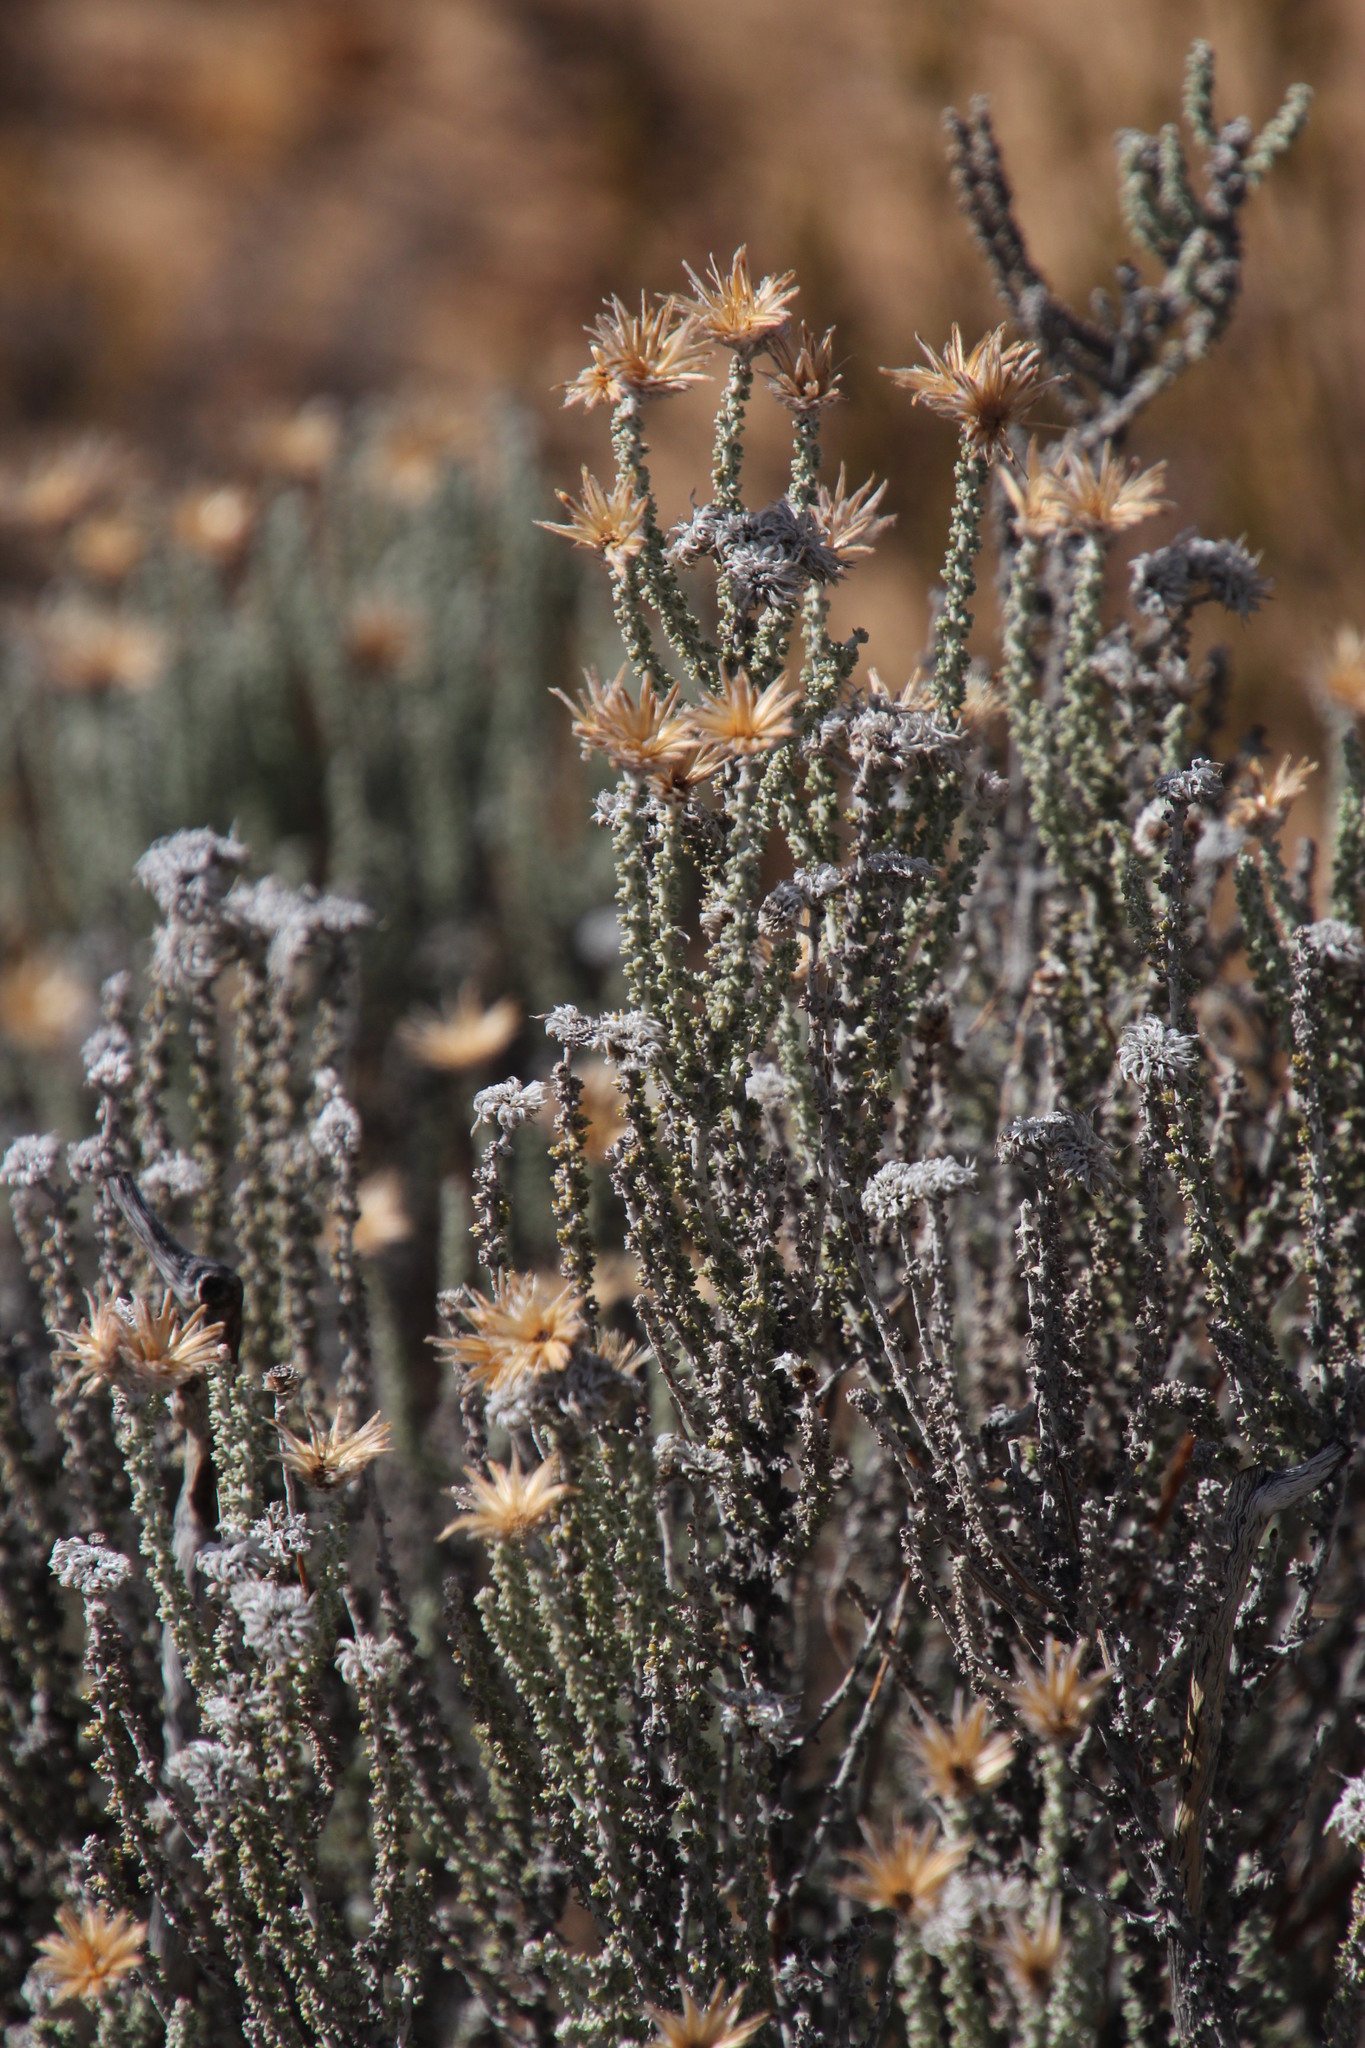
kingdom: Plantae
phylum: Tracheophyta
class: Magnoliopsida
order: Asterales
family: Asteraceae
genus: Lachnospermum
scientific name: Lachnospermum fasciculatum
